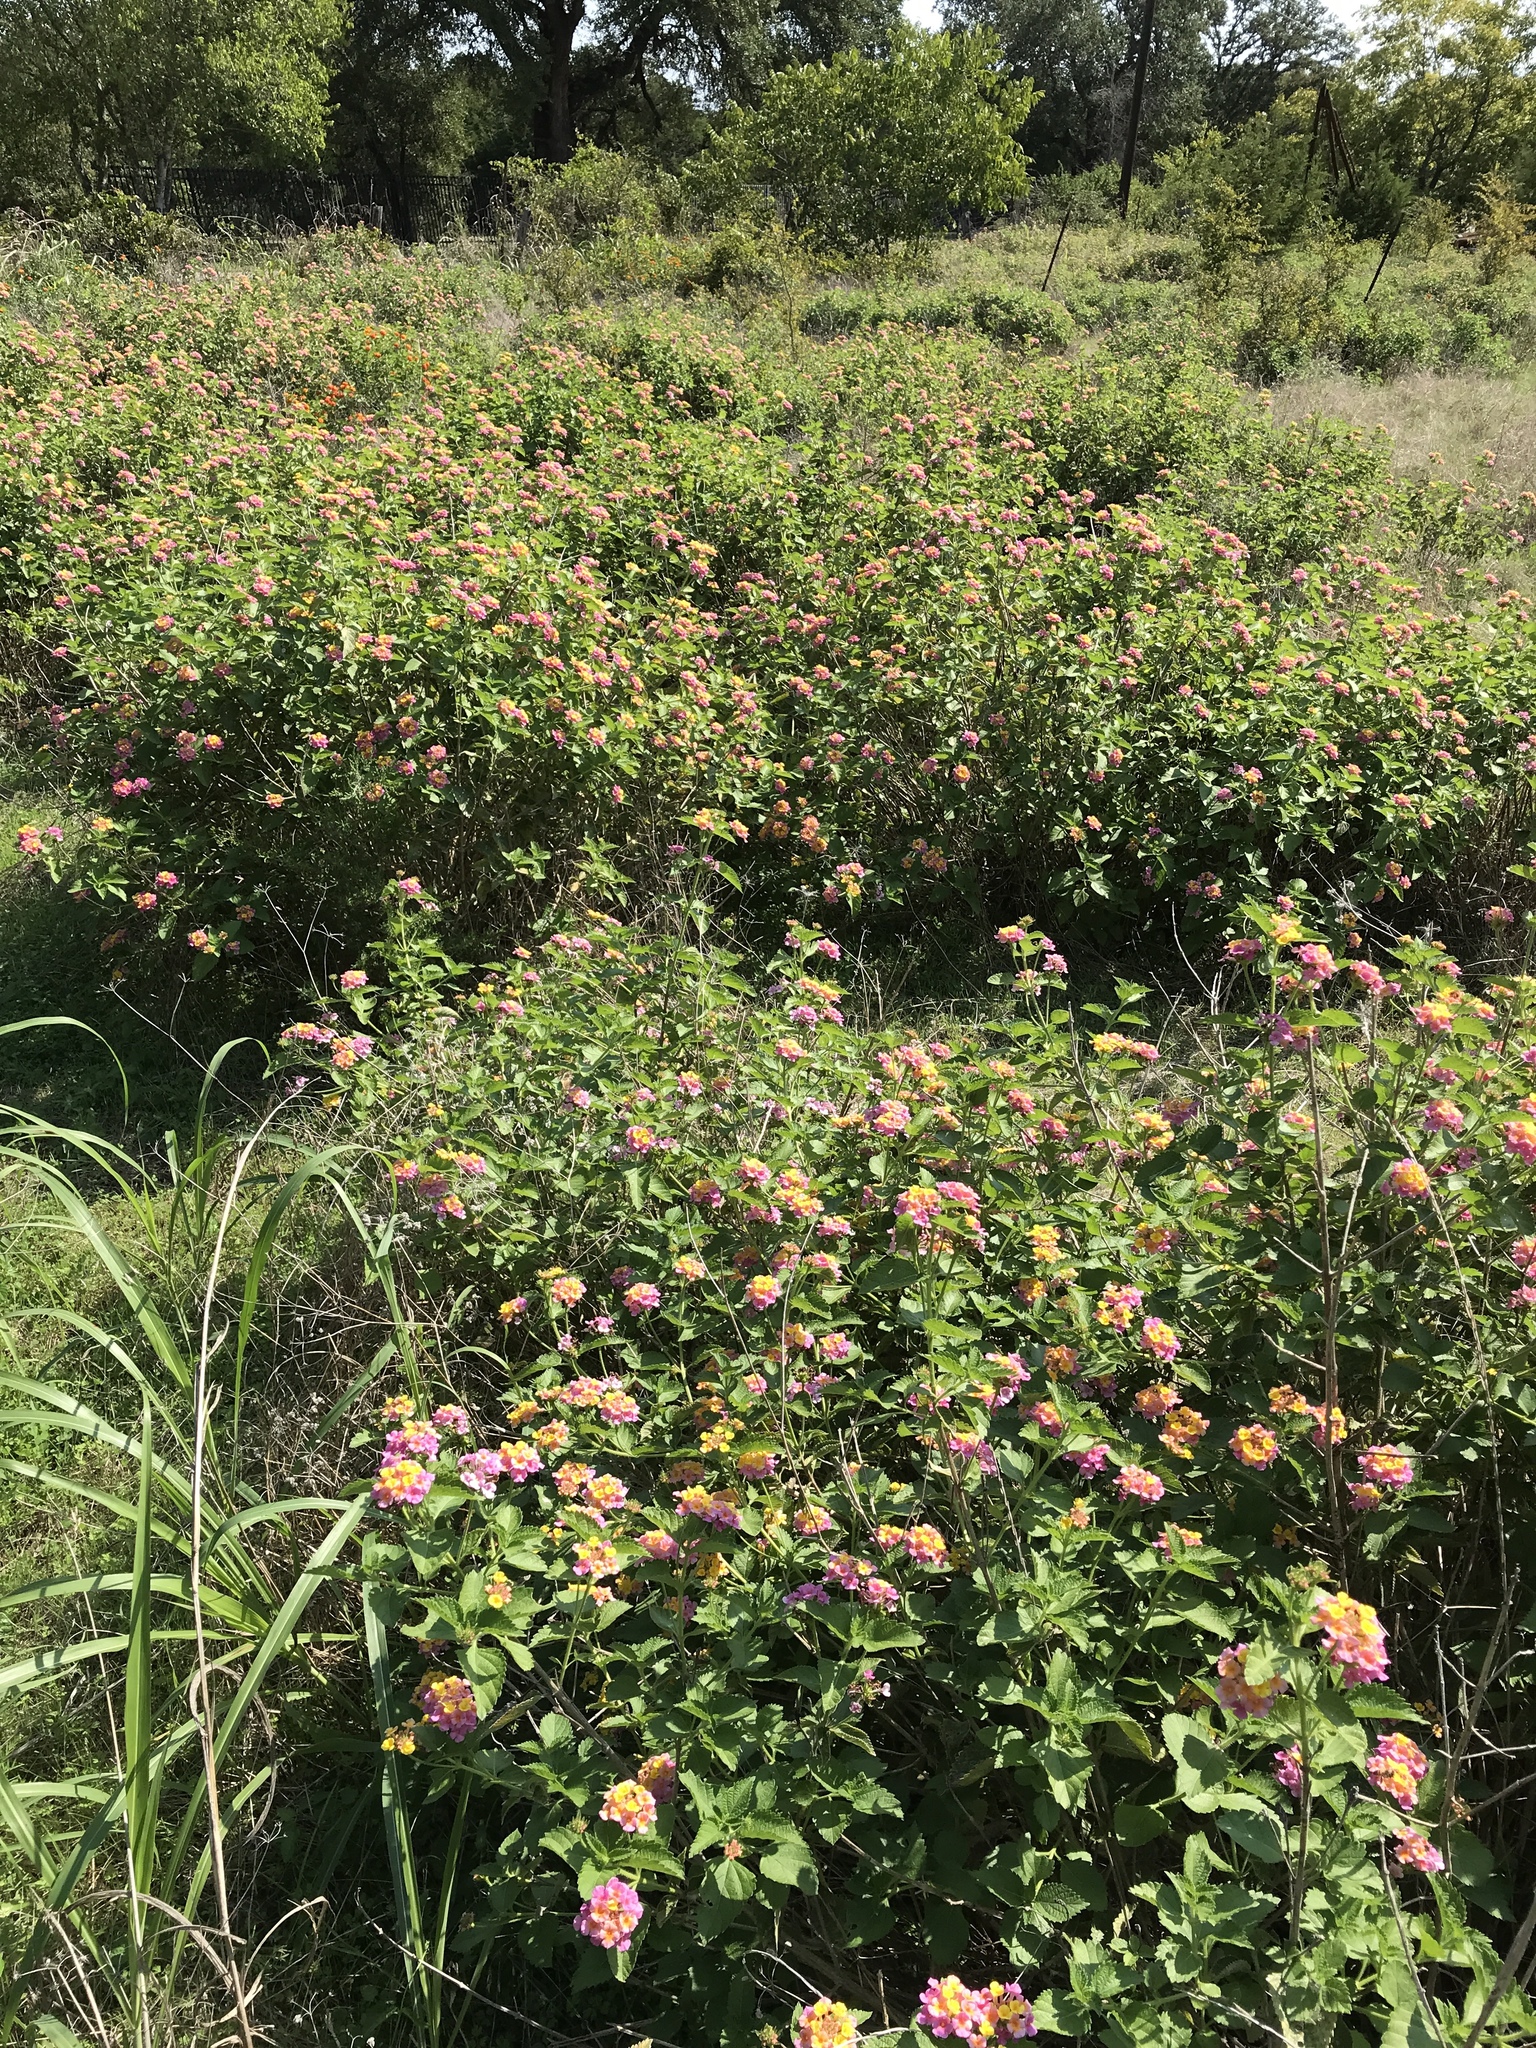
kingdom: Plantae
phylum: Tracheophyta
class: Magnoliopsida
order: Lamiales
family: Verbenaceae
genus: Lantana
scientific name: Lantana strigocamara
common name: Lantana
